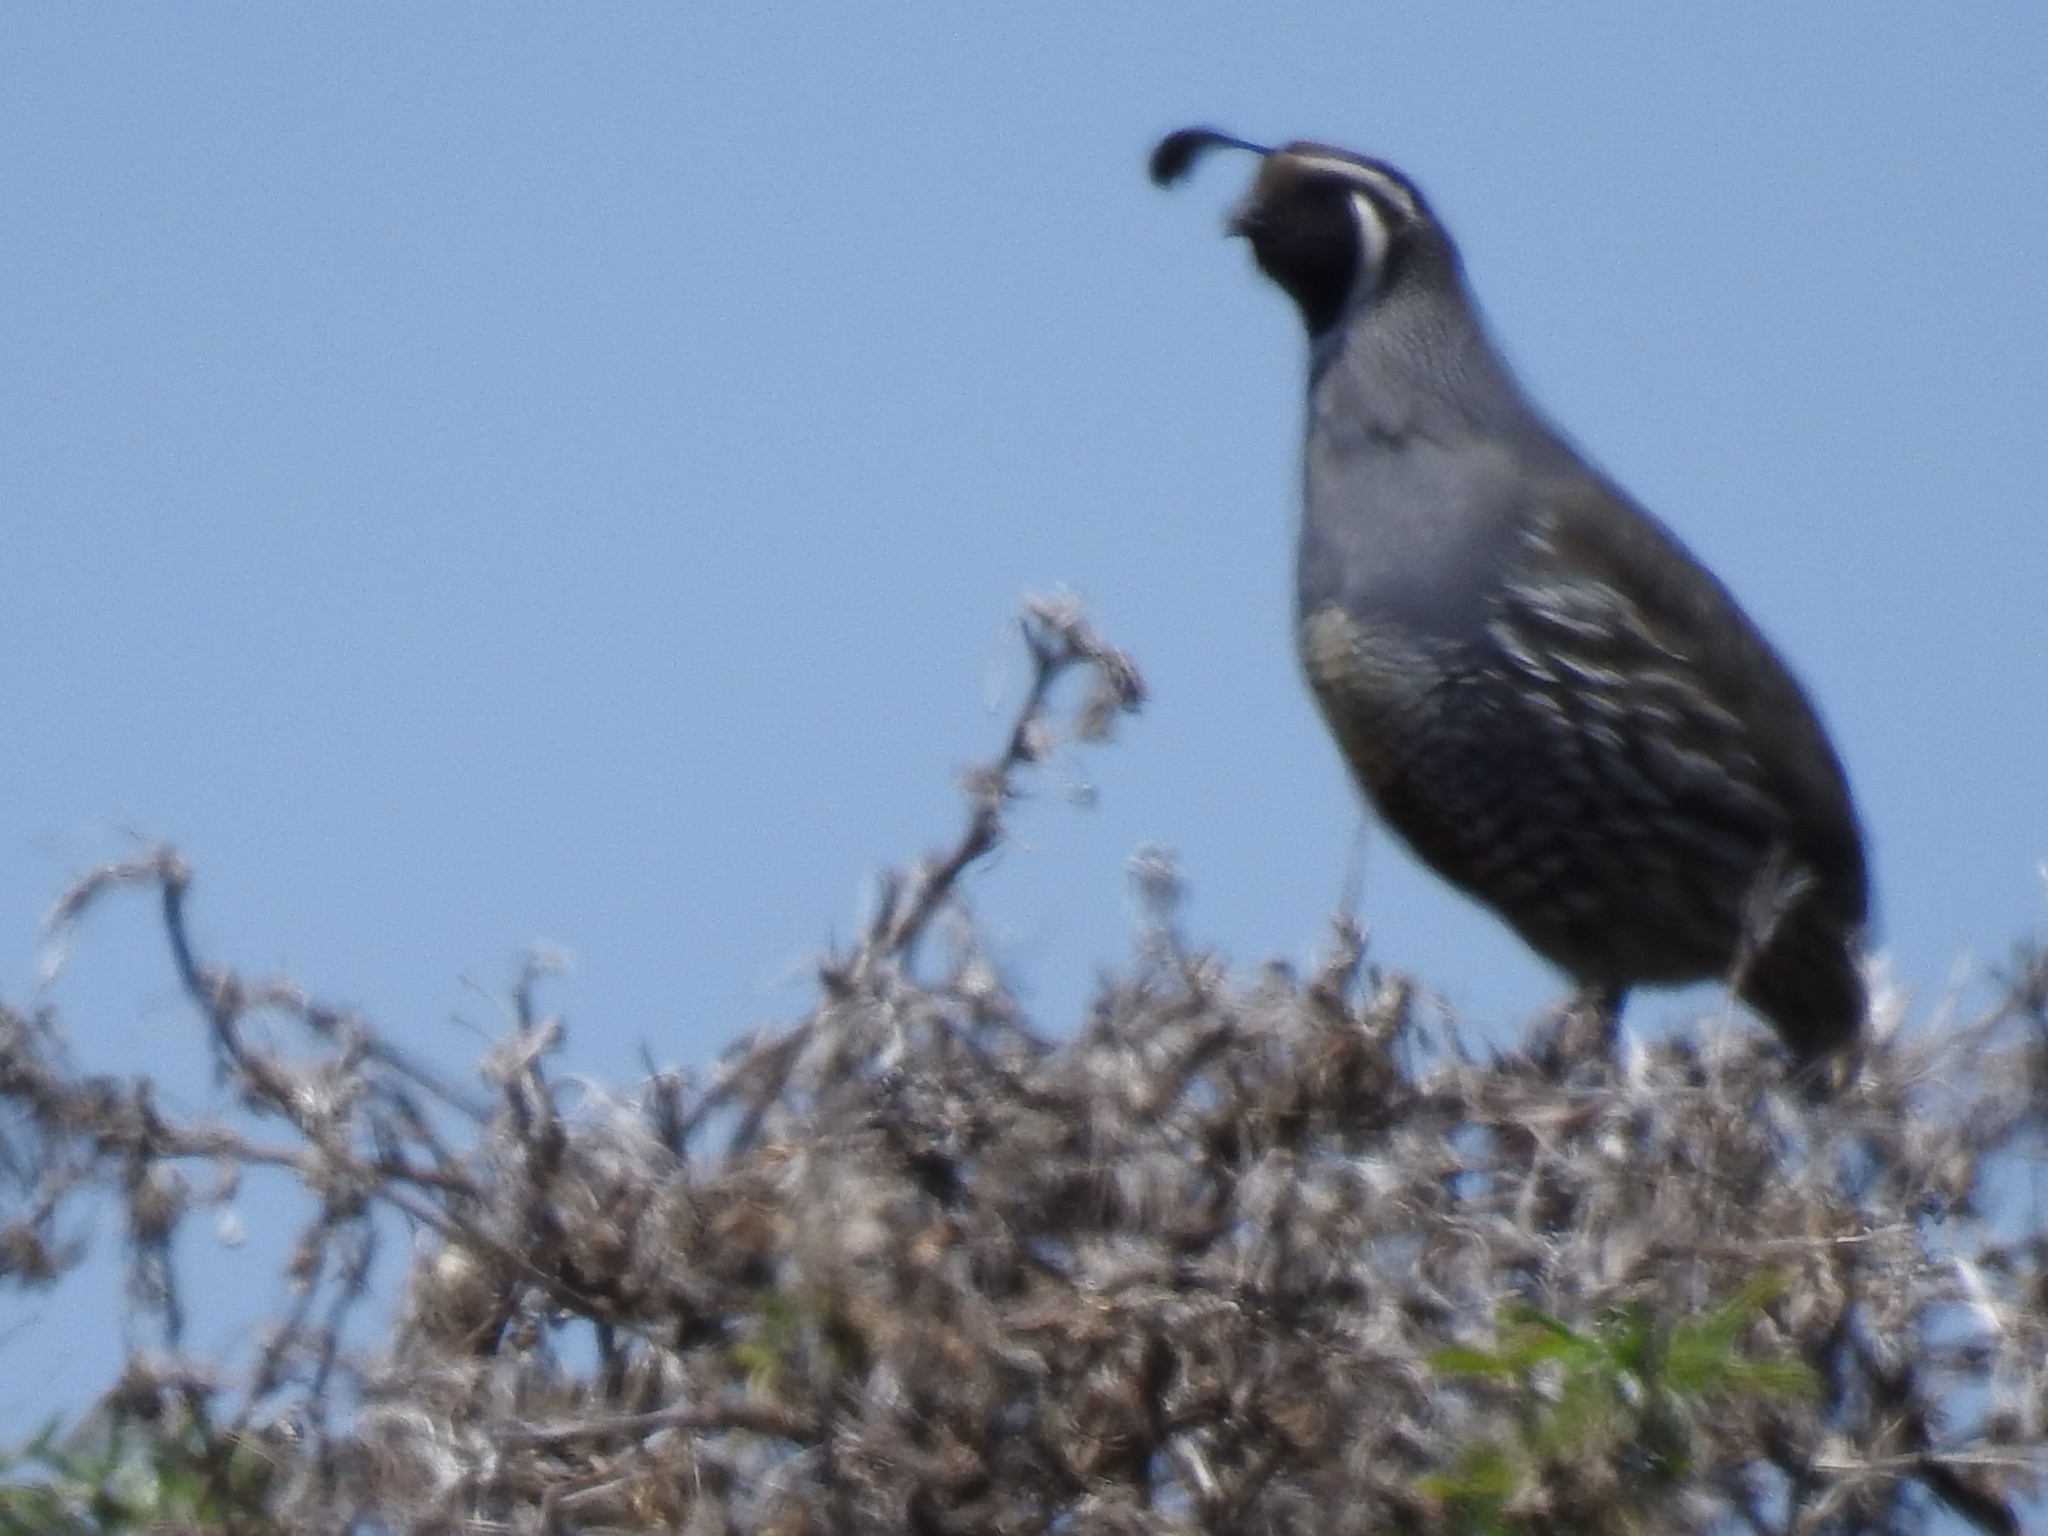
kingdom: Animalia
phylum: Chordata
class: Aves
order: Galliformes
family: Odontophoridae
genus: Callipepla
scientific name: Callipepla californica
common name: California quail
